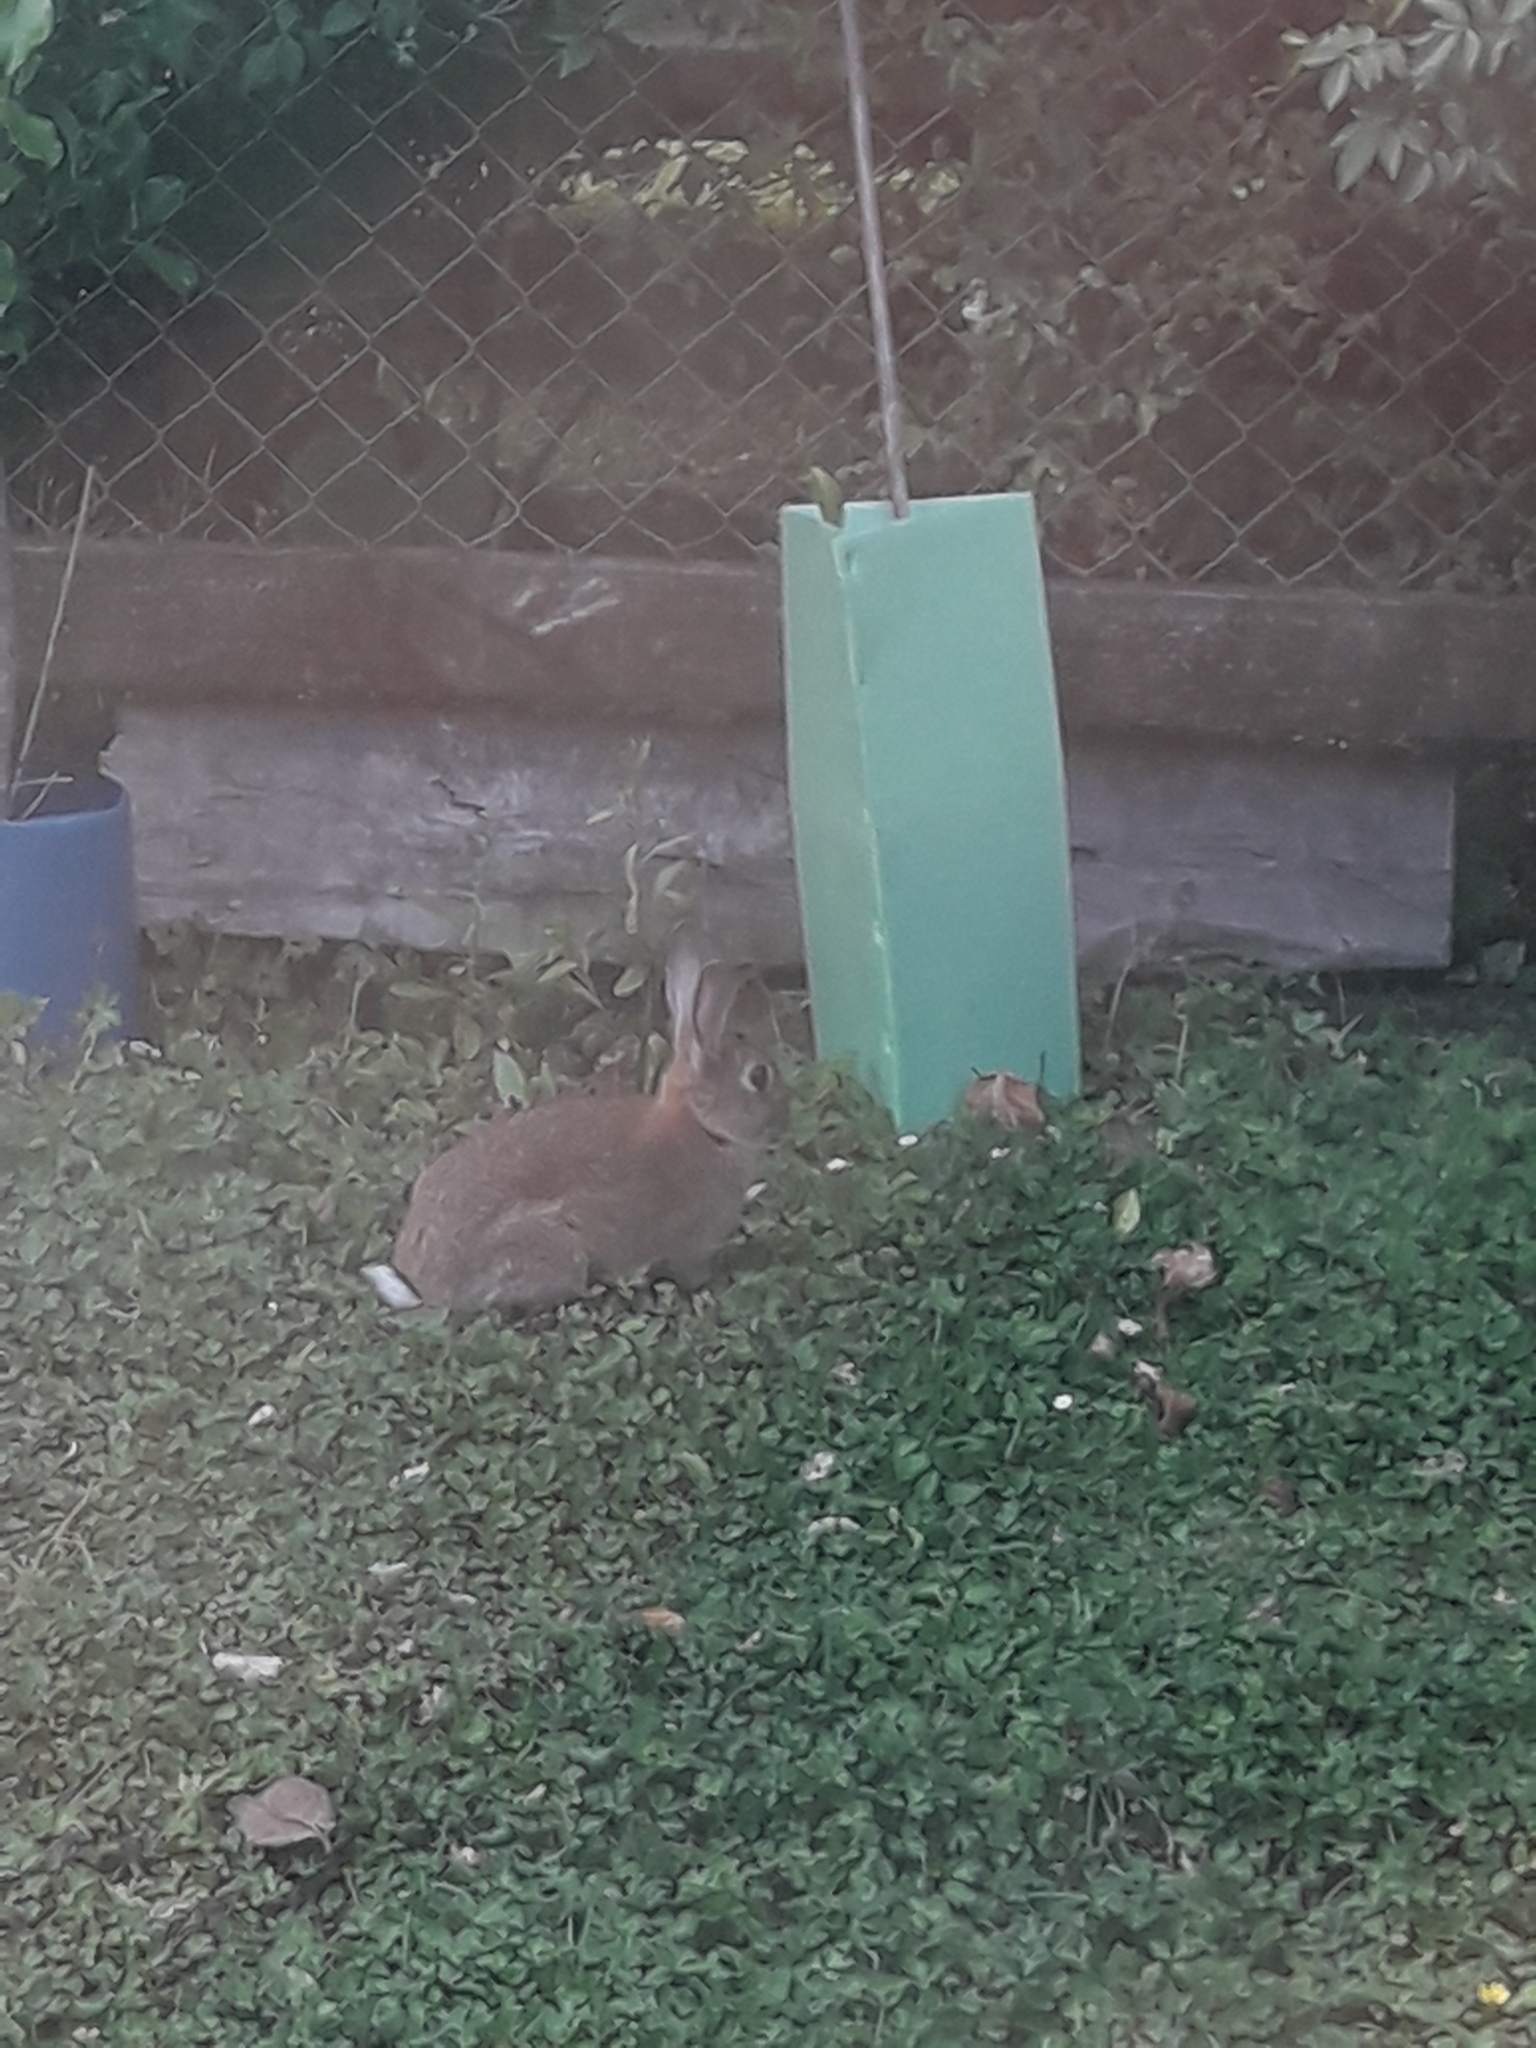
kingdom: Animalia
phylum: Chordata
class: Mammalia
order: Lagomorpha
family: Leporidae
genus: Oryctolagus
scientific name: Oryctolagus cuniculus
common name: European rabbit
